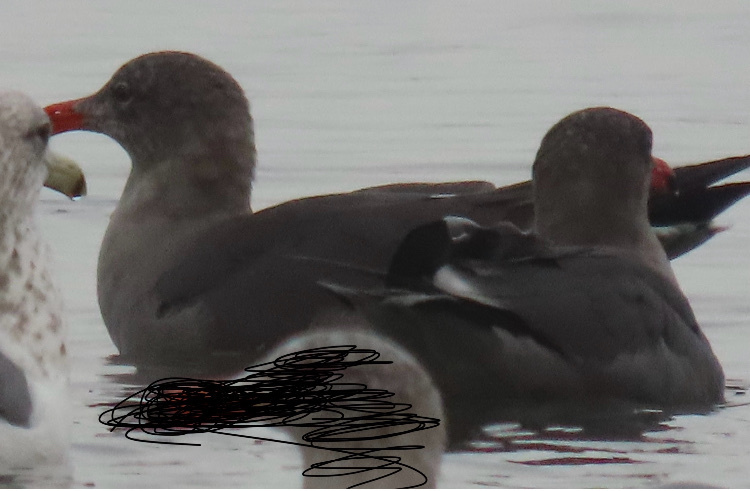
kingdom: Animalia
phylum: Chordata
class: Aves
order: Charadriiformes
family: Laridae
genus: Larus
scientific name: Larus heermanni
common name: Heermann's gull
